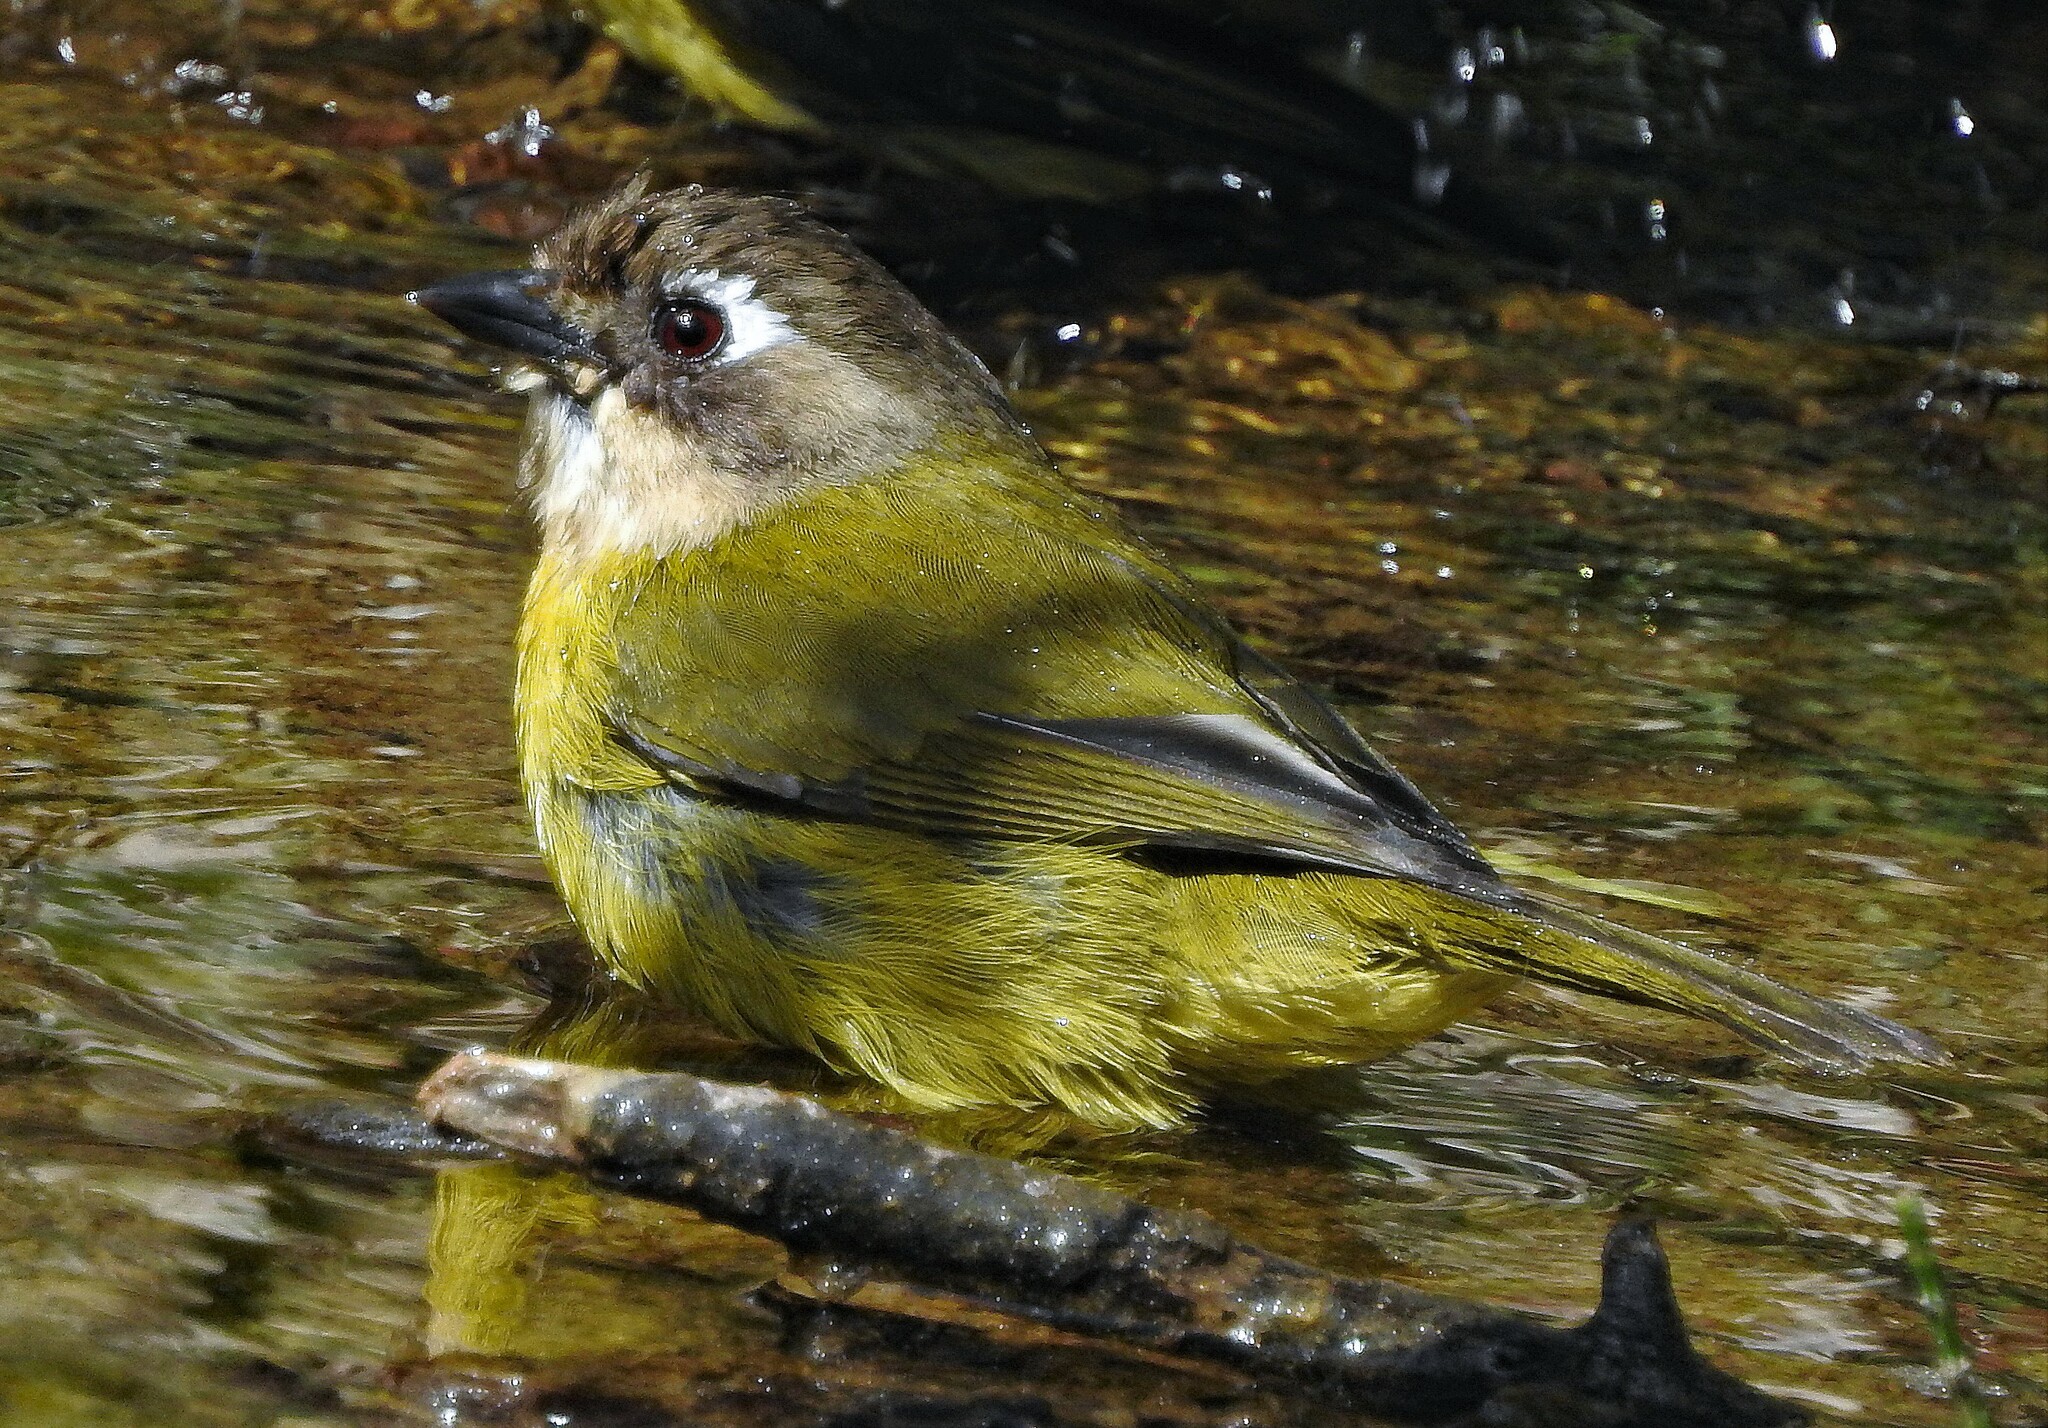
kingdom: Animalia
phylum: Chordata
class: Aves
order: Passeriformes
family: Passerellidae
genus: Chlorospingus
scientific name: Chlorospingus flavopectus
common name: Common chlorospingus
